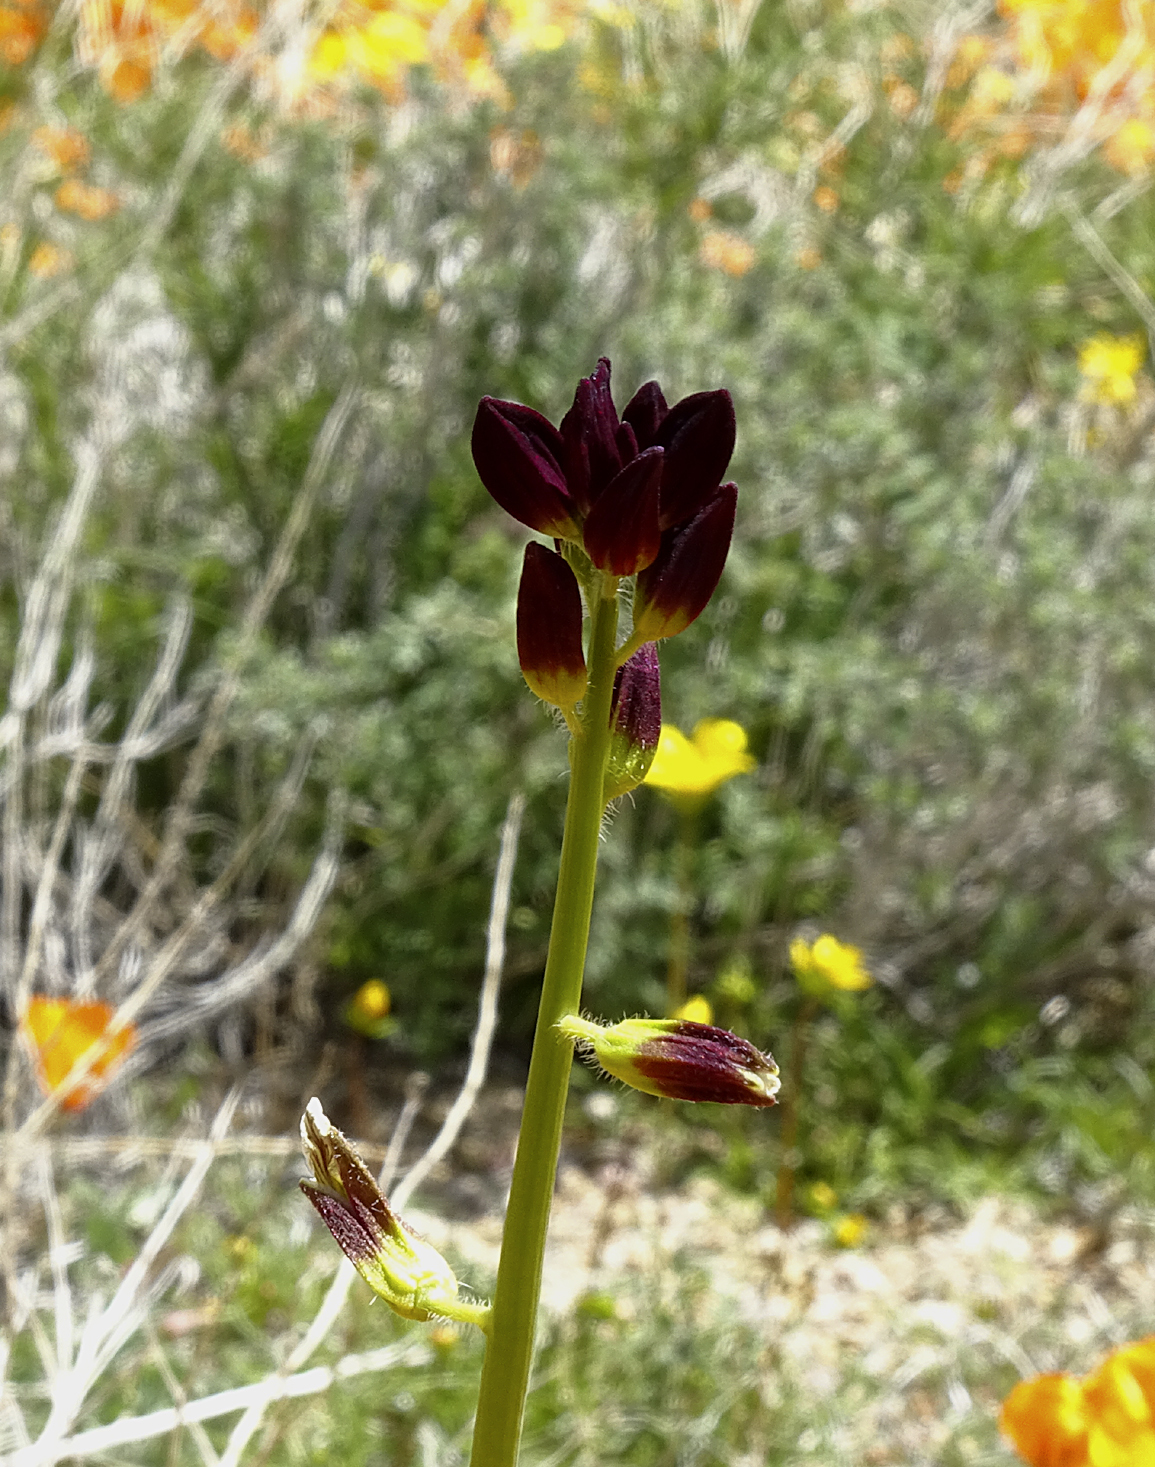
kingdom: Plantae
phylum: Tracheophyta
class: Magnoliopsida
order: Brassicales
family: Brassicaceae
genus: Streptanthus
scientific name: Streptanthus coulteri
